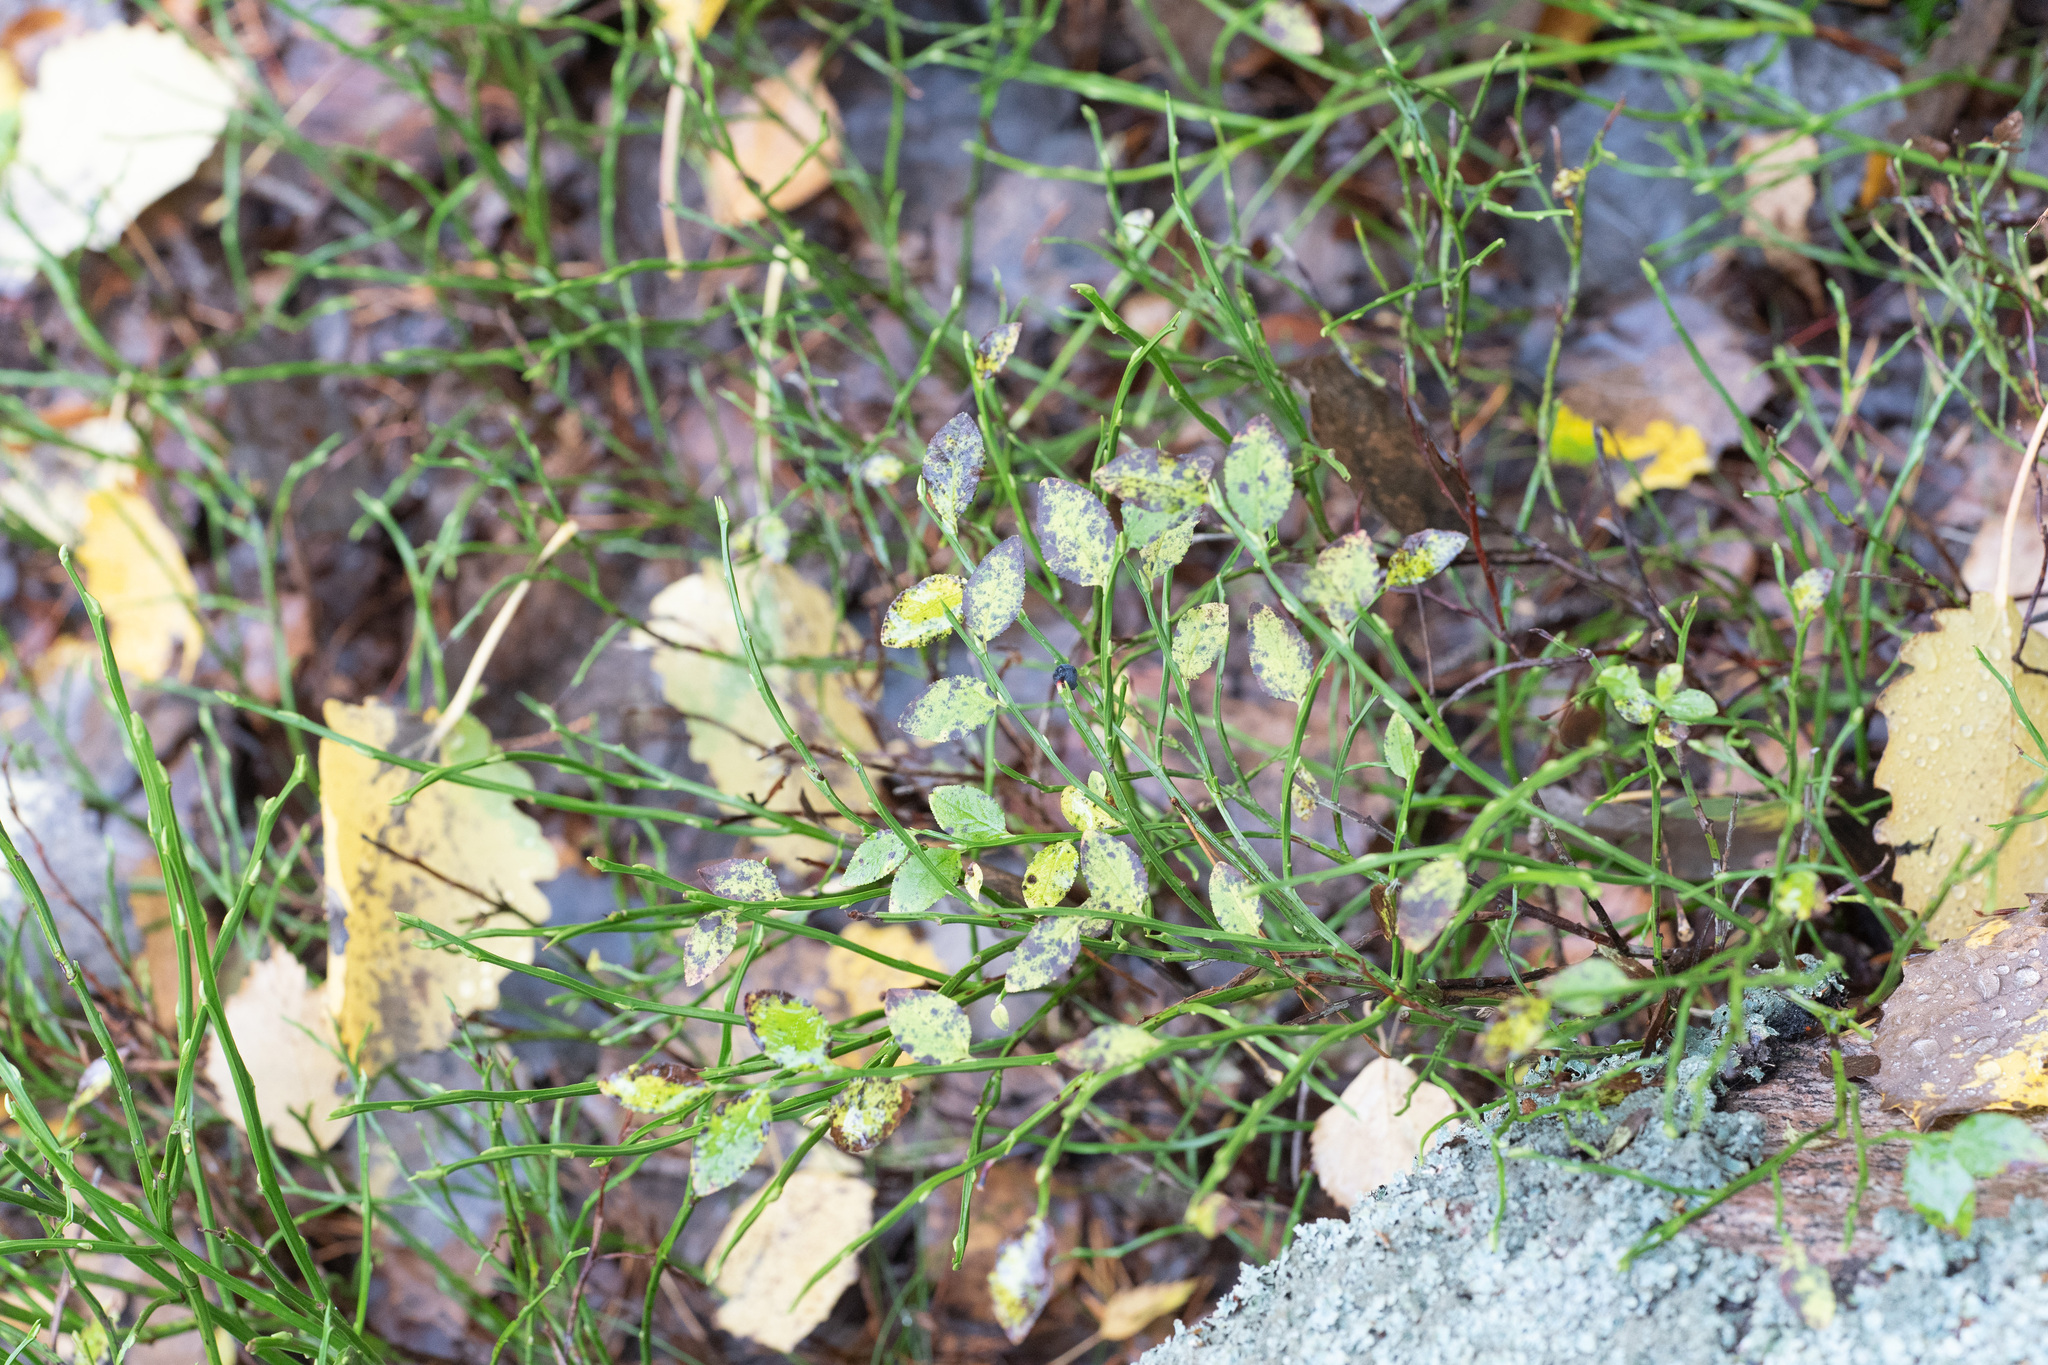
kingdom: Plantae
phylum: Tracheophyta
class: Magnoliopsida
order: Ericales
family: Ericaceae
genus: Vaccinium
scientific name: Vaccinium myrtillus
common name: Bilberry
